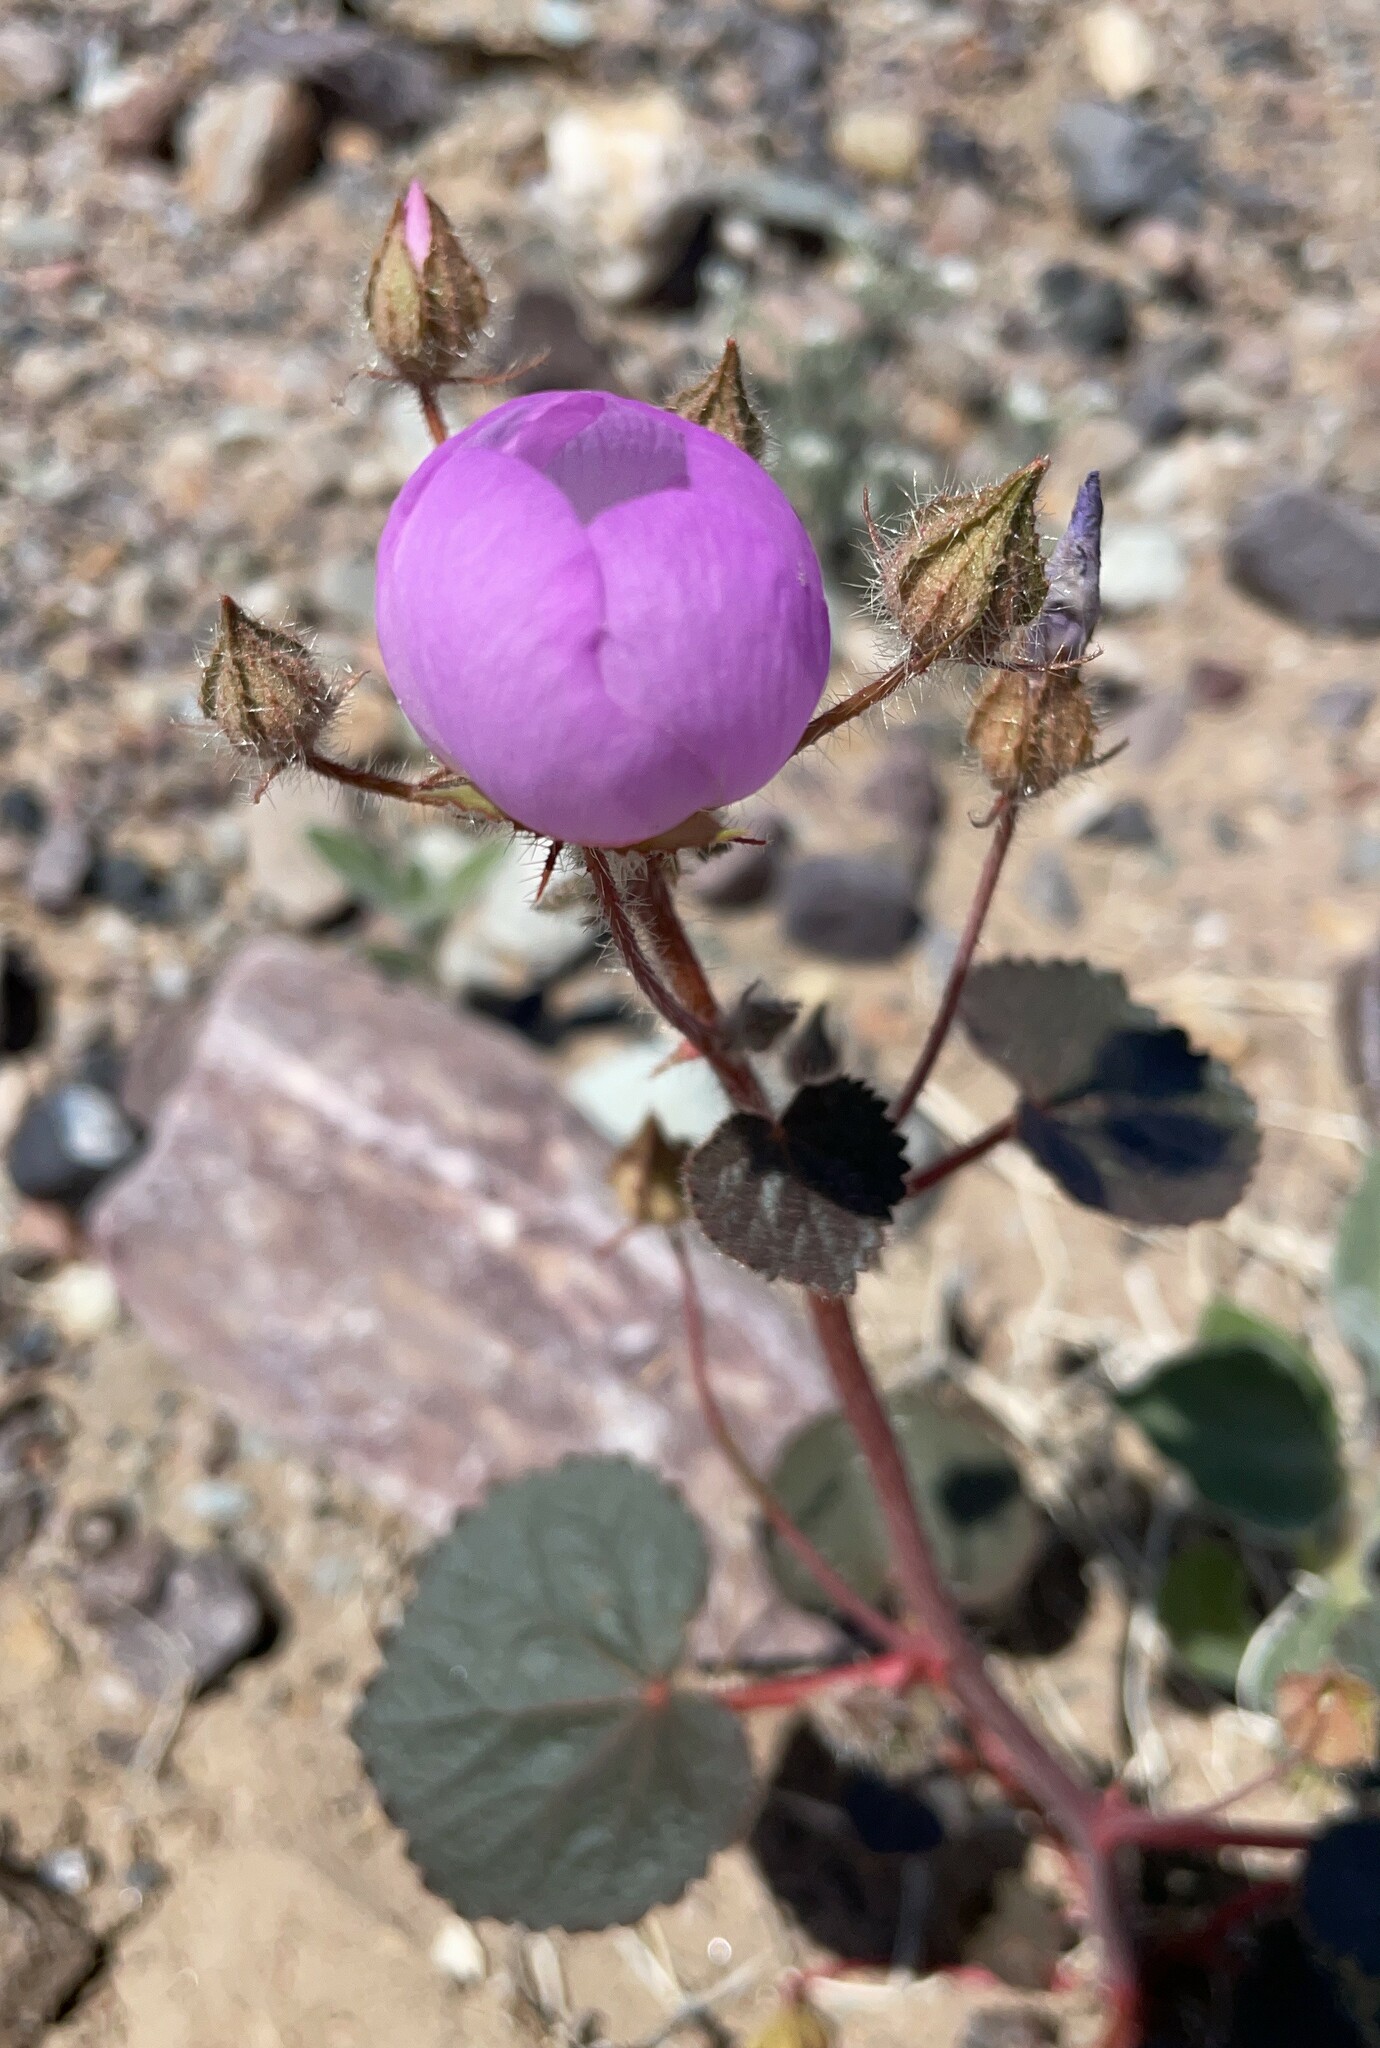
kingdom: Plantae
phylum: Tracheophyta
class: Magnoliopsida
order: Malvales
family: Malvaceae
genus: Eremalche
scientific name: Eremalche rotundifolia
